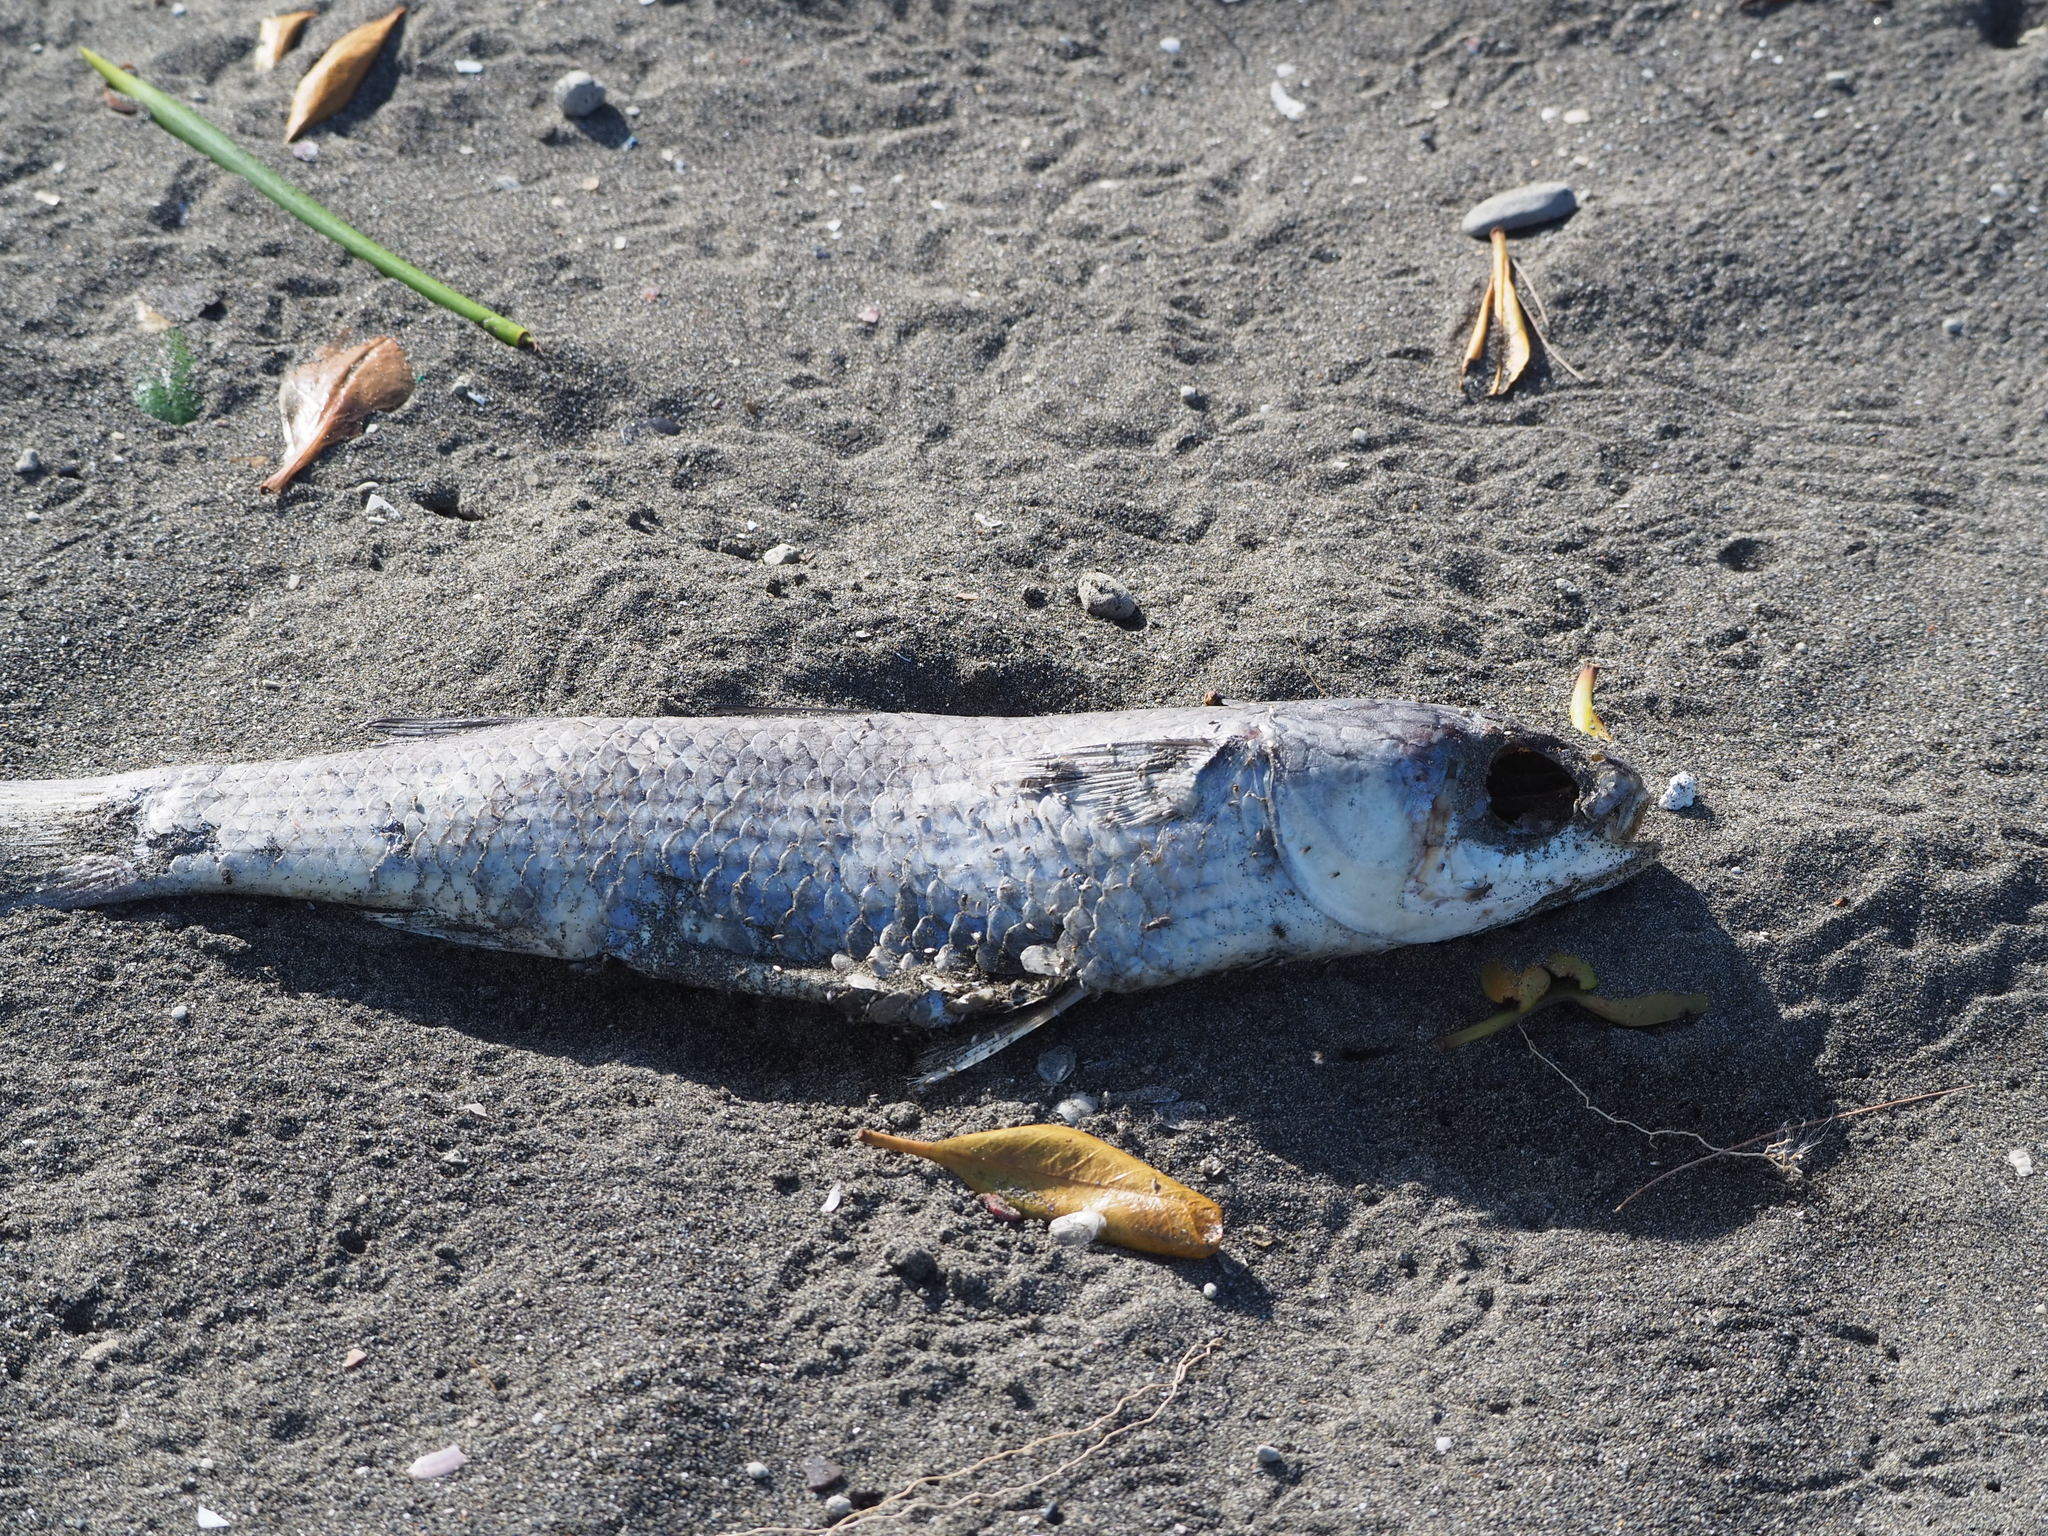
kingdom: Animalia
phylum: Chordata
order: Mugiliformes
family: Mugilidae
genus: Mugil
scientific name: Mugil cephalus
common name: Grey mullet
